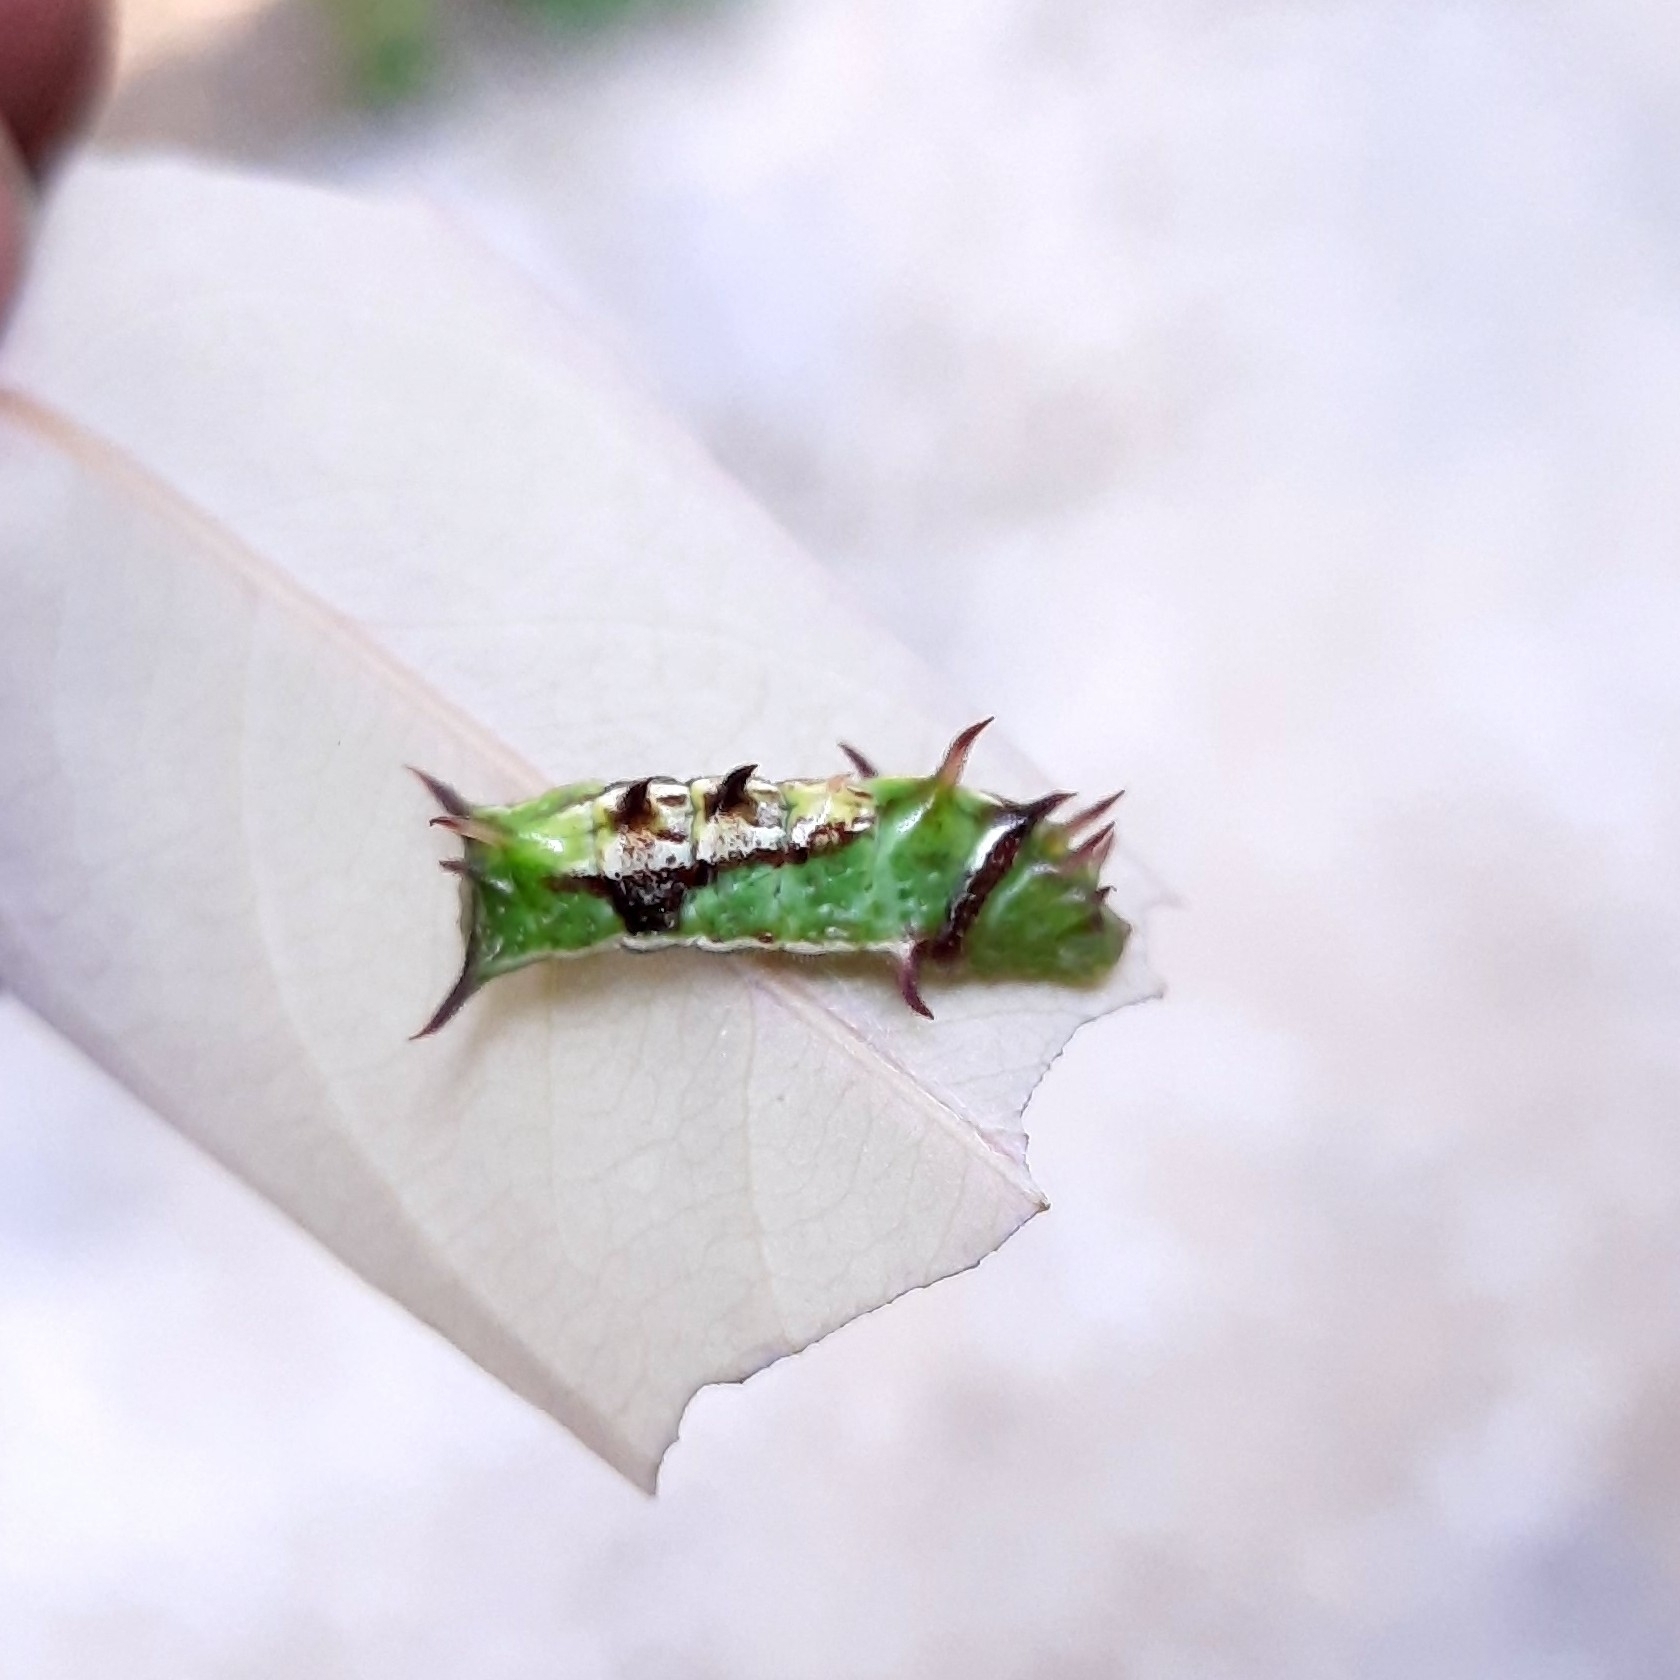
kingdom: Animalia
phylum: Arthropoda
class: Insecta
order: Lepidoptera
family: Lycaenidae
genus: Rathinda
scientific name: Rathinda amor
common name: Monkey puzzle
